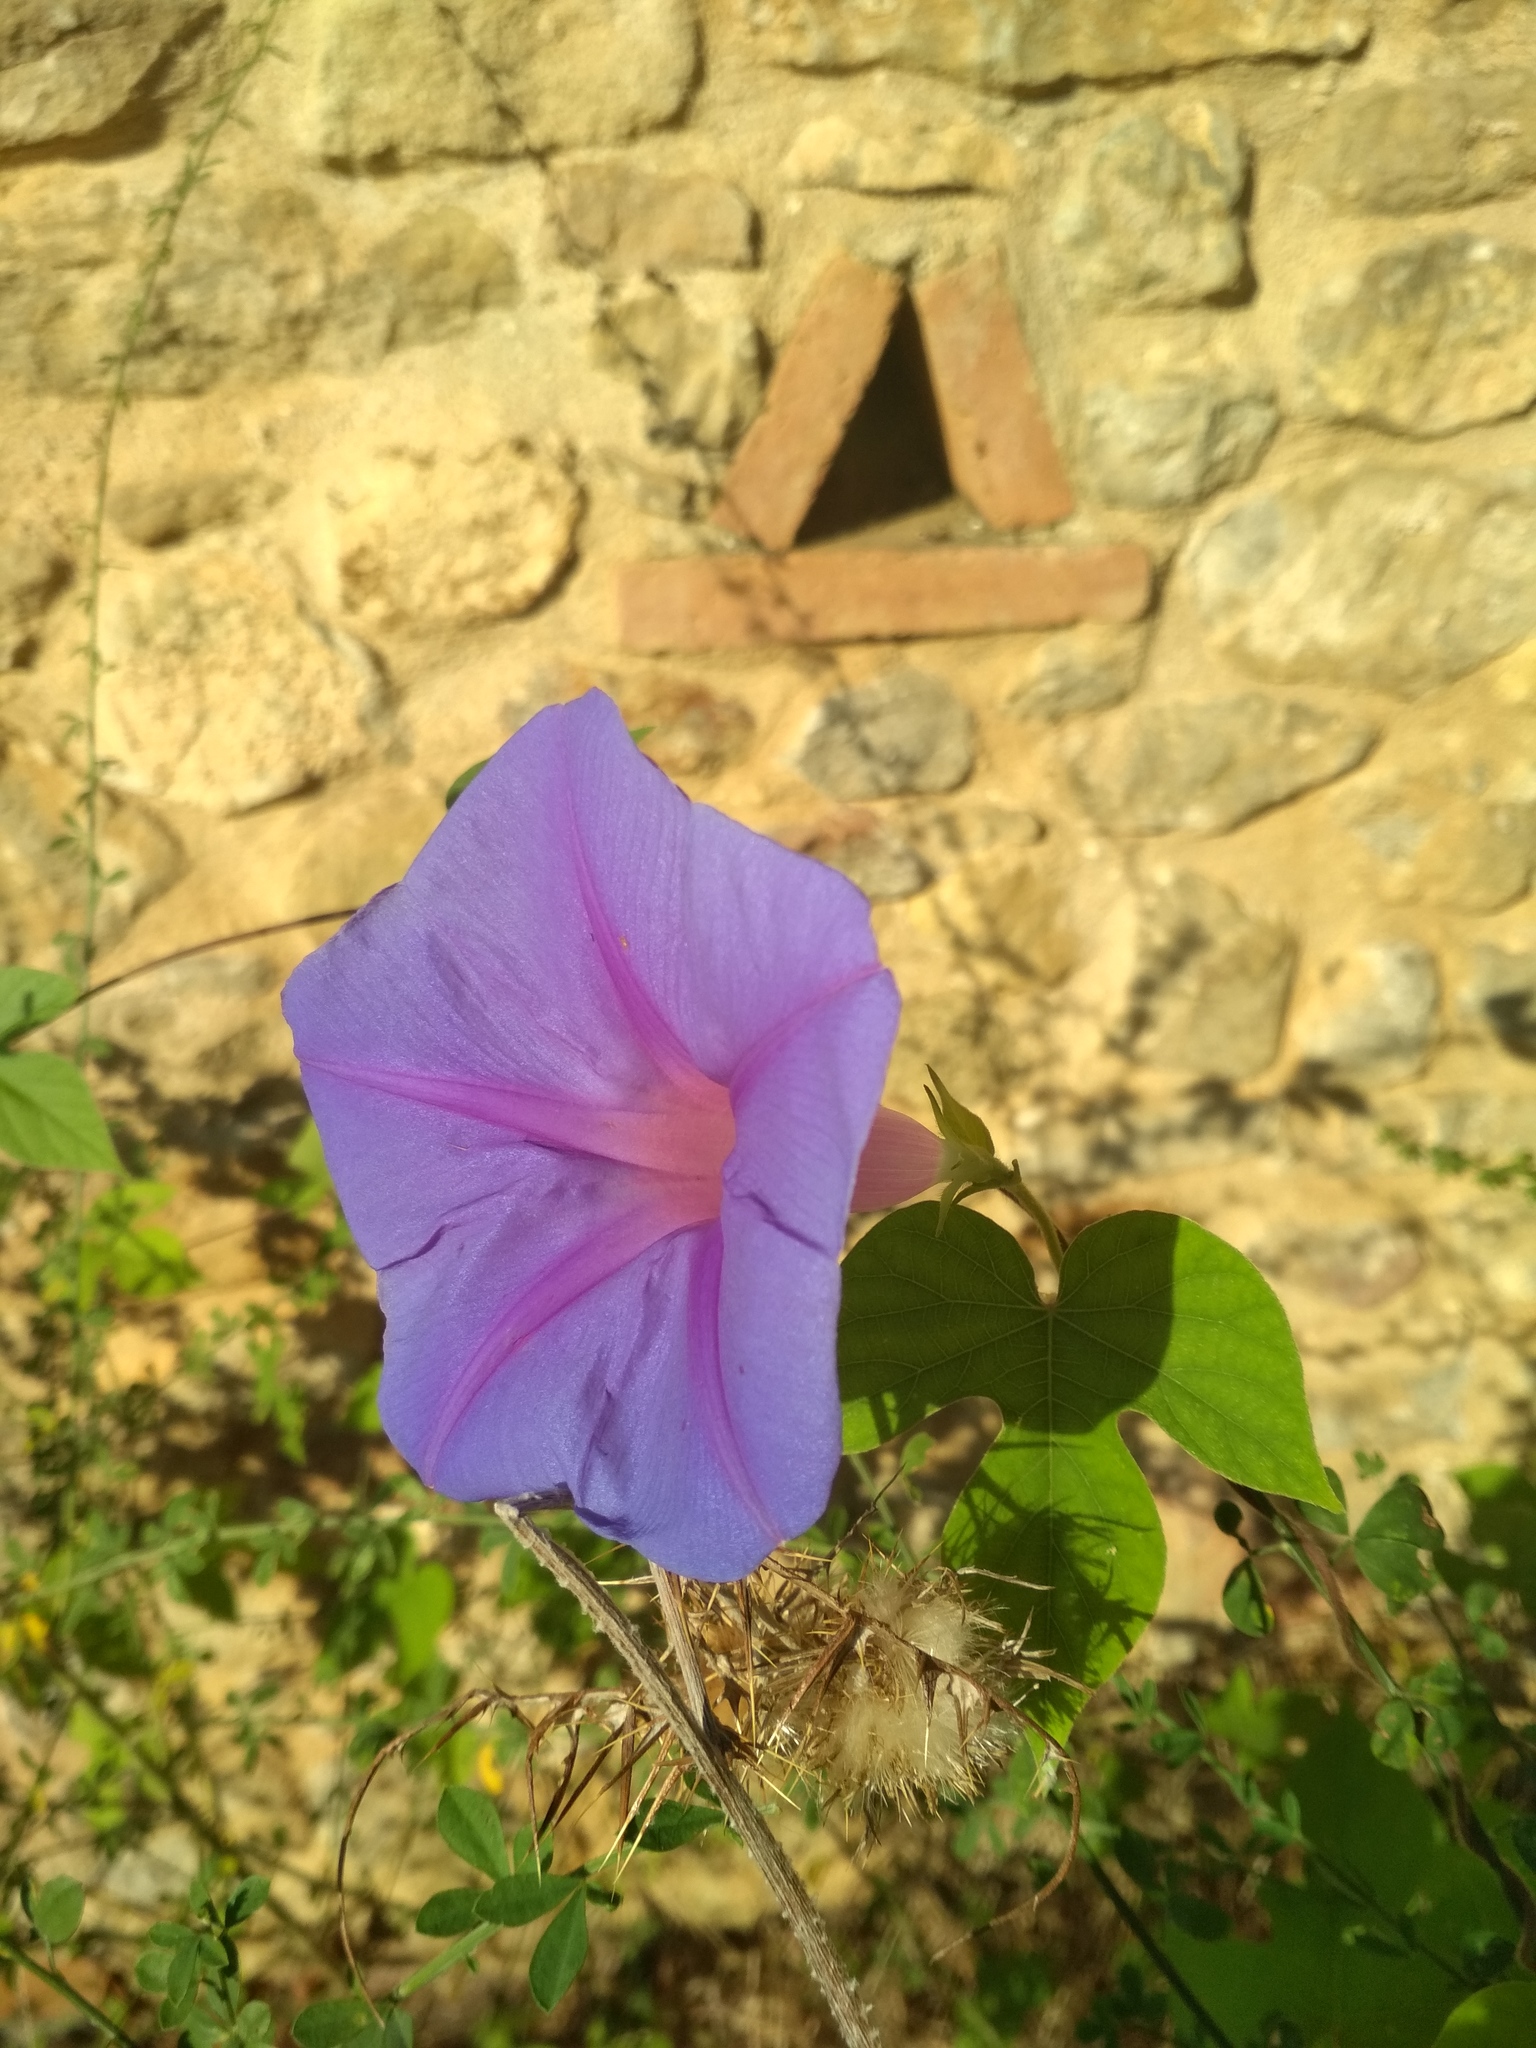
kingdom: Plantae
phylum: Tracheophyta
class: Magnoliopsida
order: Solanales
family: Convolvulaceae
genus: Ipomoea
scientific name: Ipomoea indica
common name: Blue dawnflower
